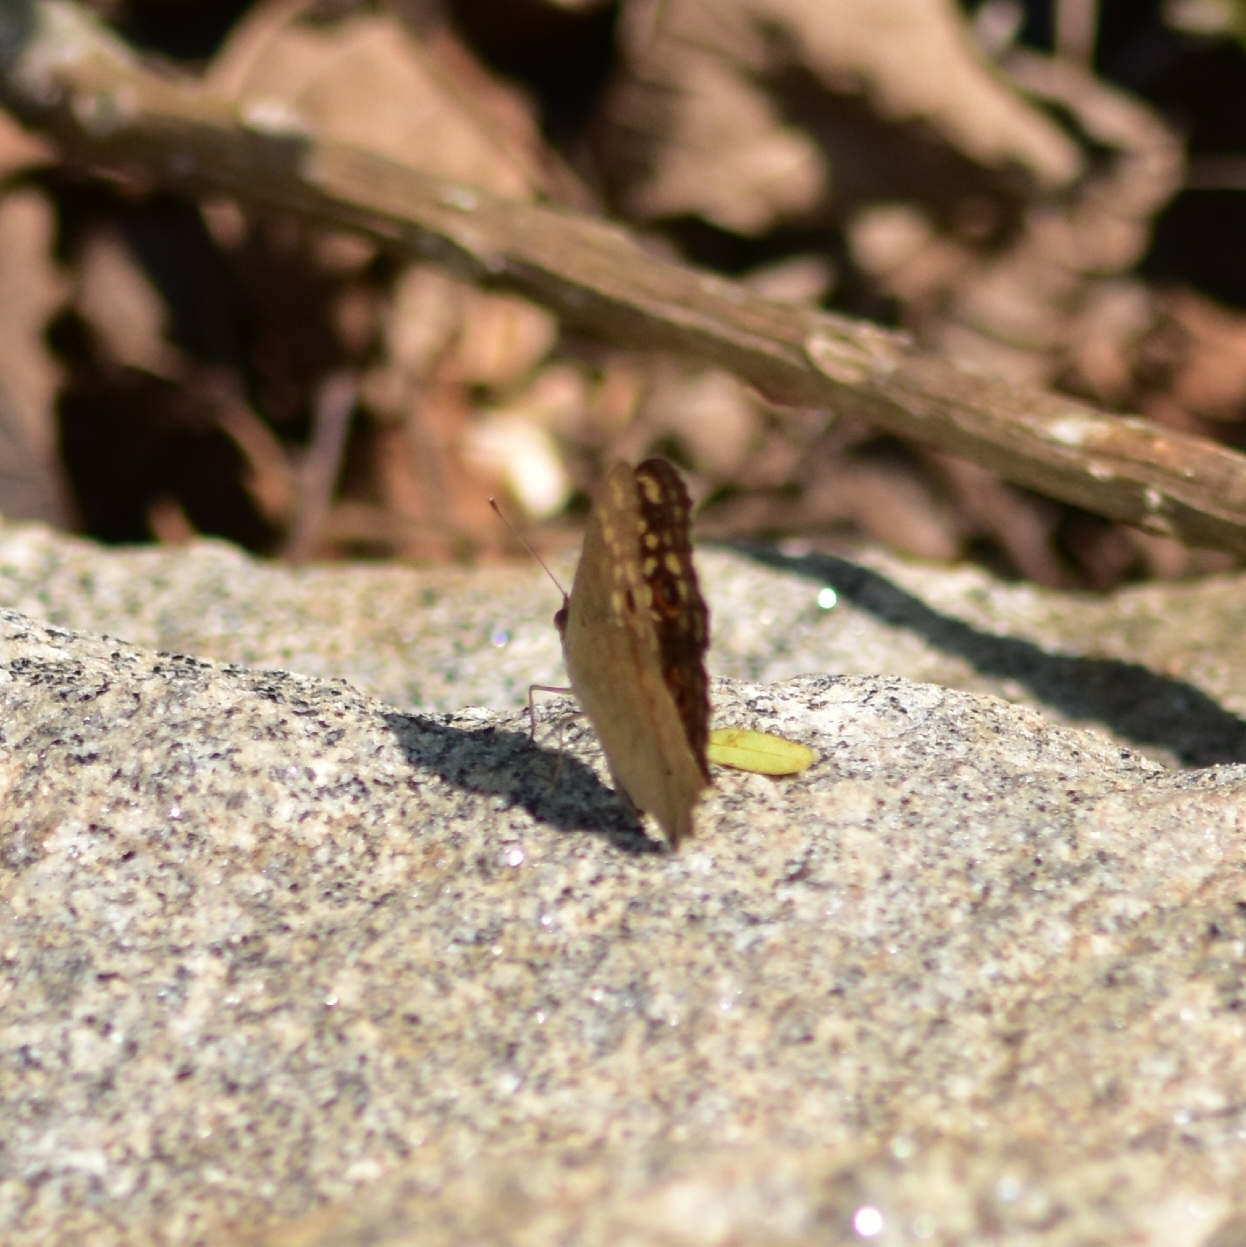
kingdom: Animalia
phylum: Arthropoda
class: Insecta
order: Lepidoptera
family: Nymphalidae
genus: Junonia
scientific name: Junonia lemonias
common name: Lemon pansy
